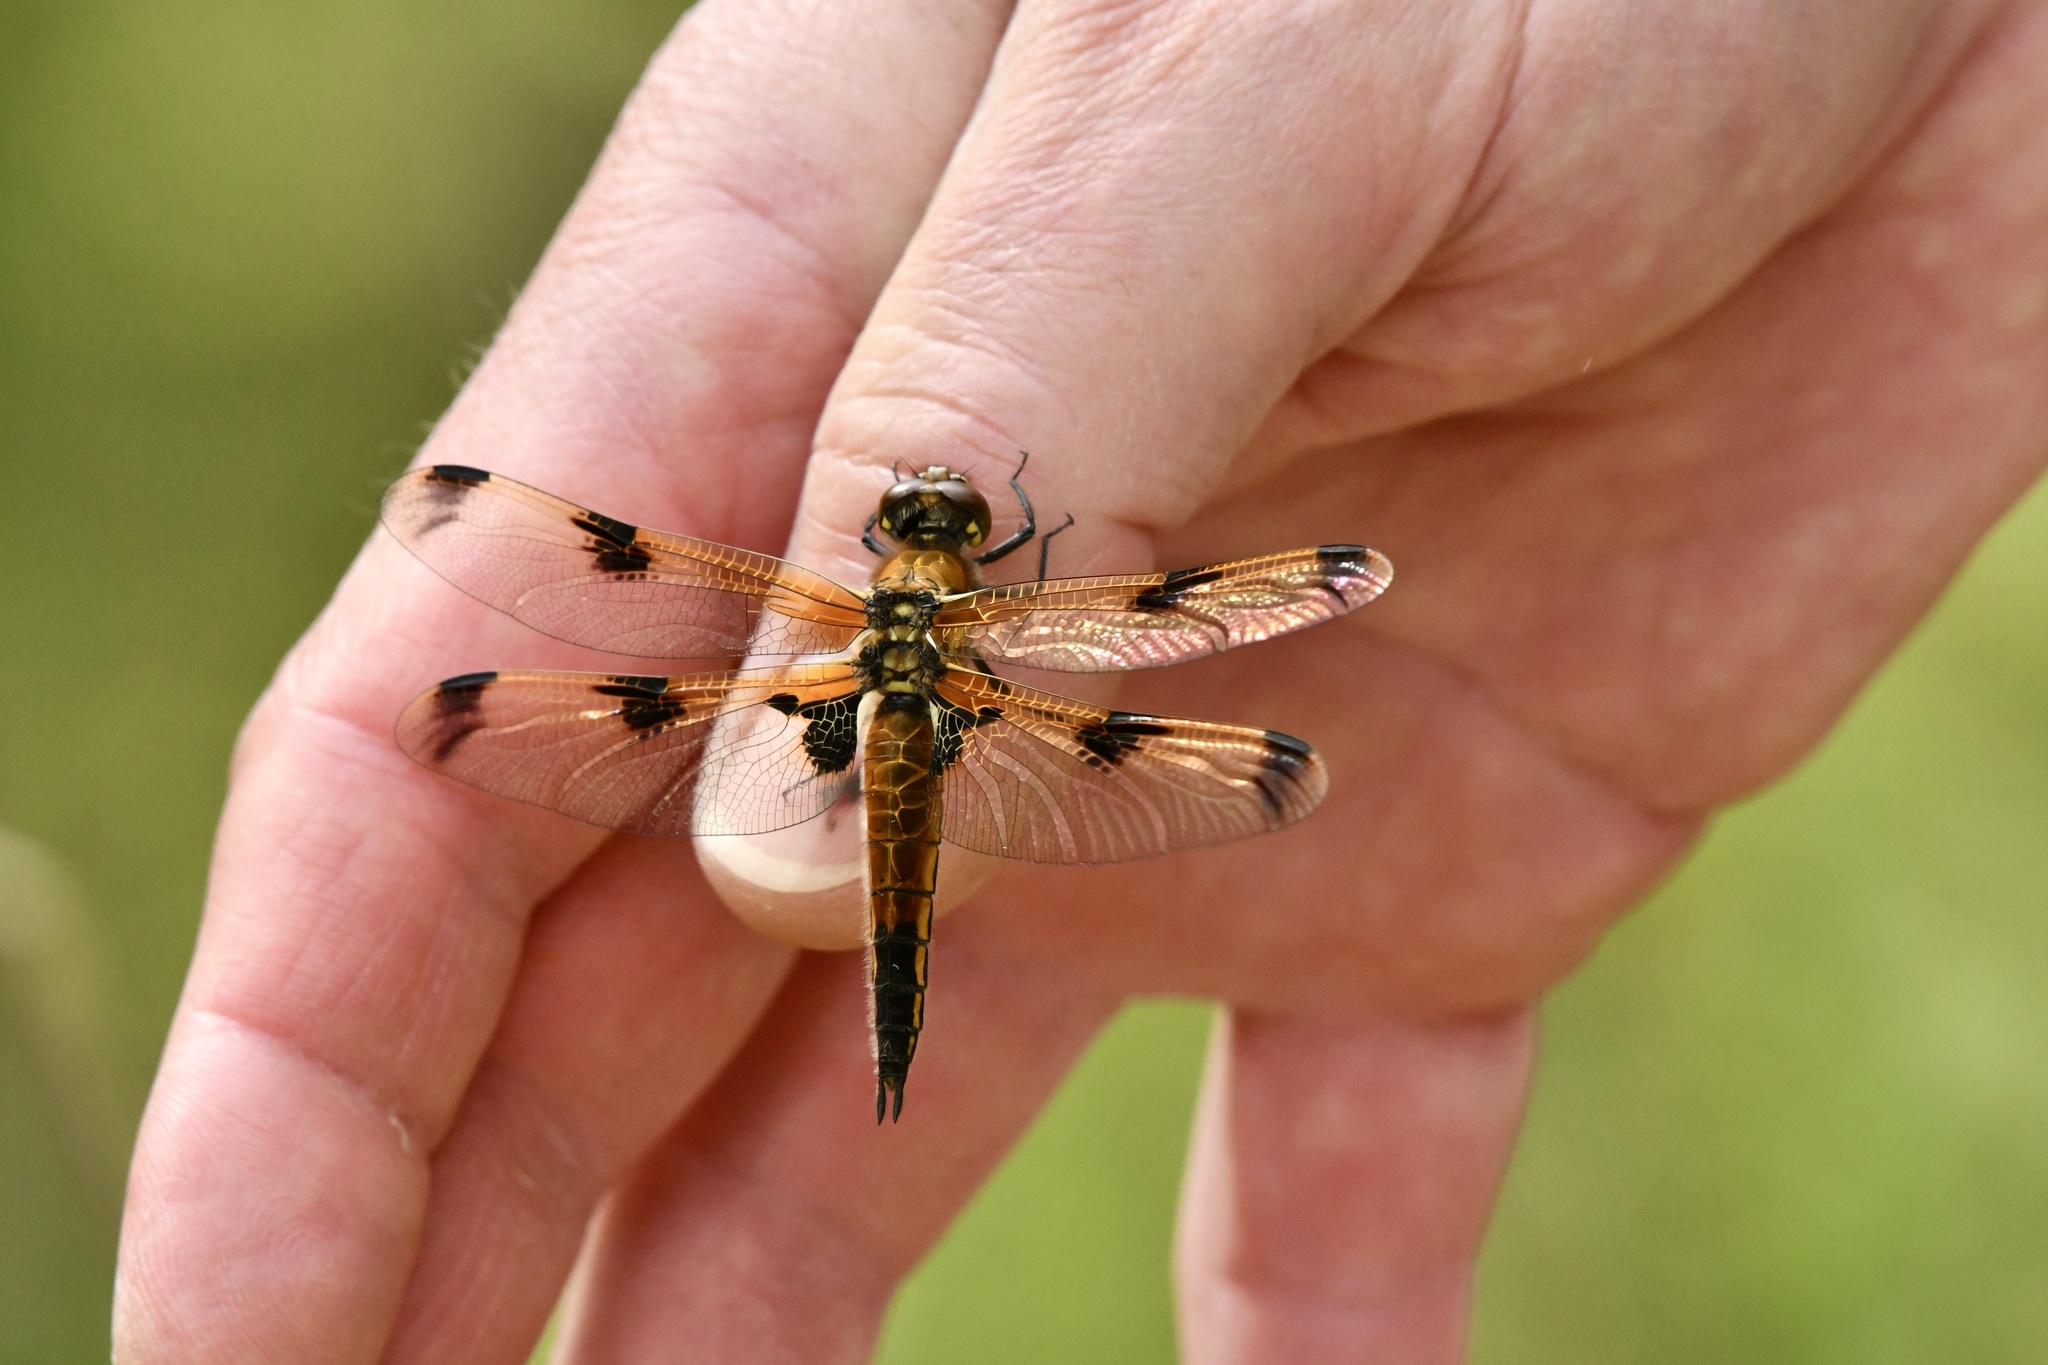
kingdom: Animalia
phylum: Arthropoda
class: Insecta
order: Odonata
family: Libellulidae
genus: Libellula
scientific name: Libellula quadrimaculata
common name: Four-spotted chaser
